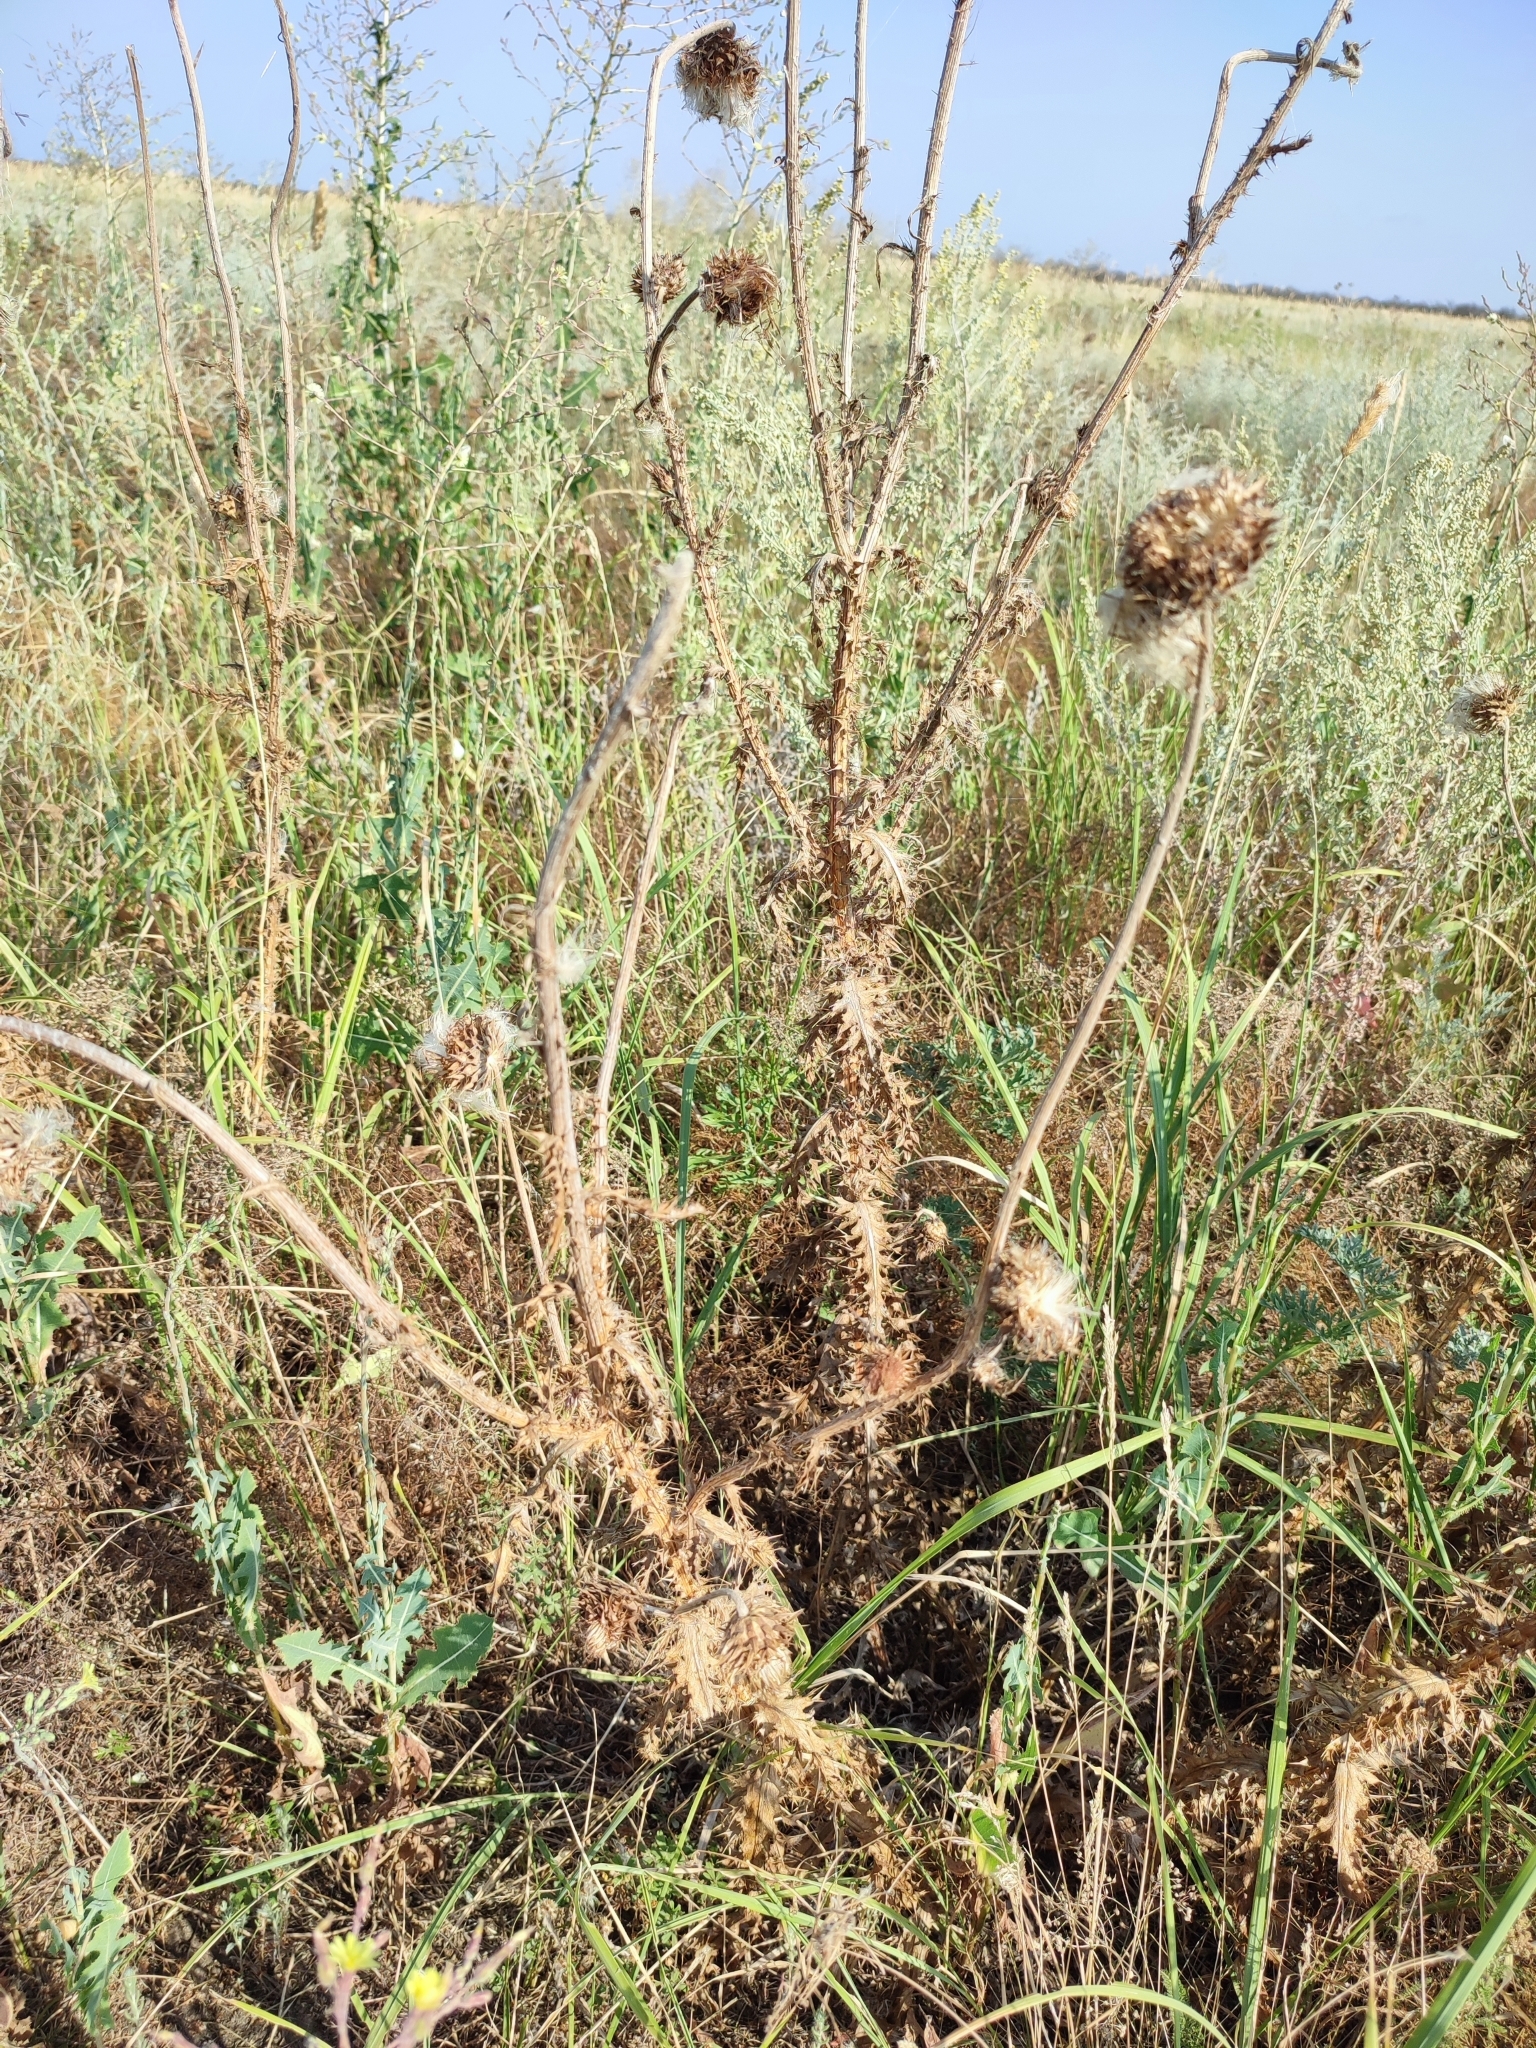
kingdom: Plantae
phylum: Tracheophyta
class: Magnoliopsida
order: Asterales
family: Asteraceae
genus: Carduus
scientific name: Carduus nutans
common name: Musk thistle
